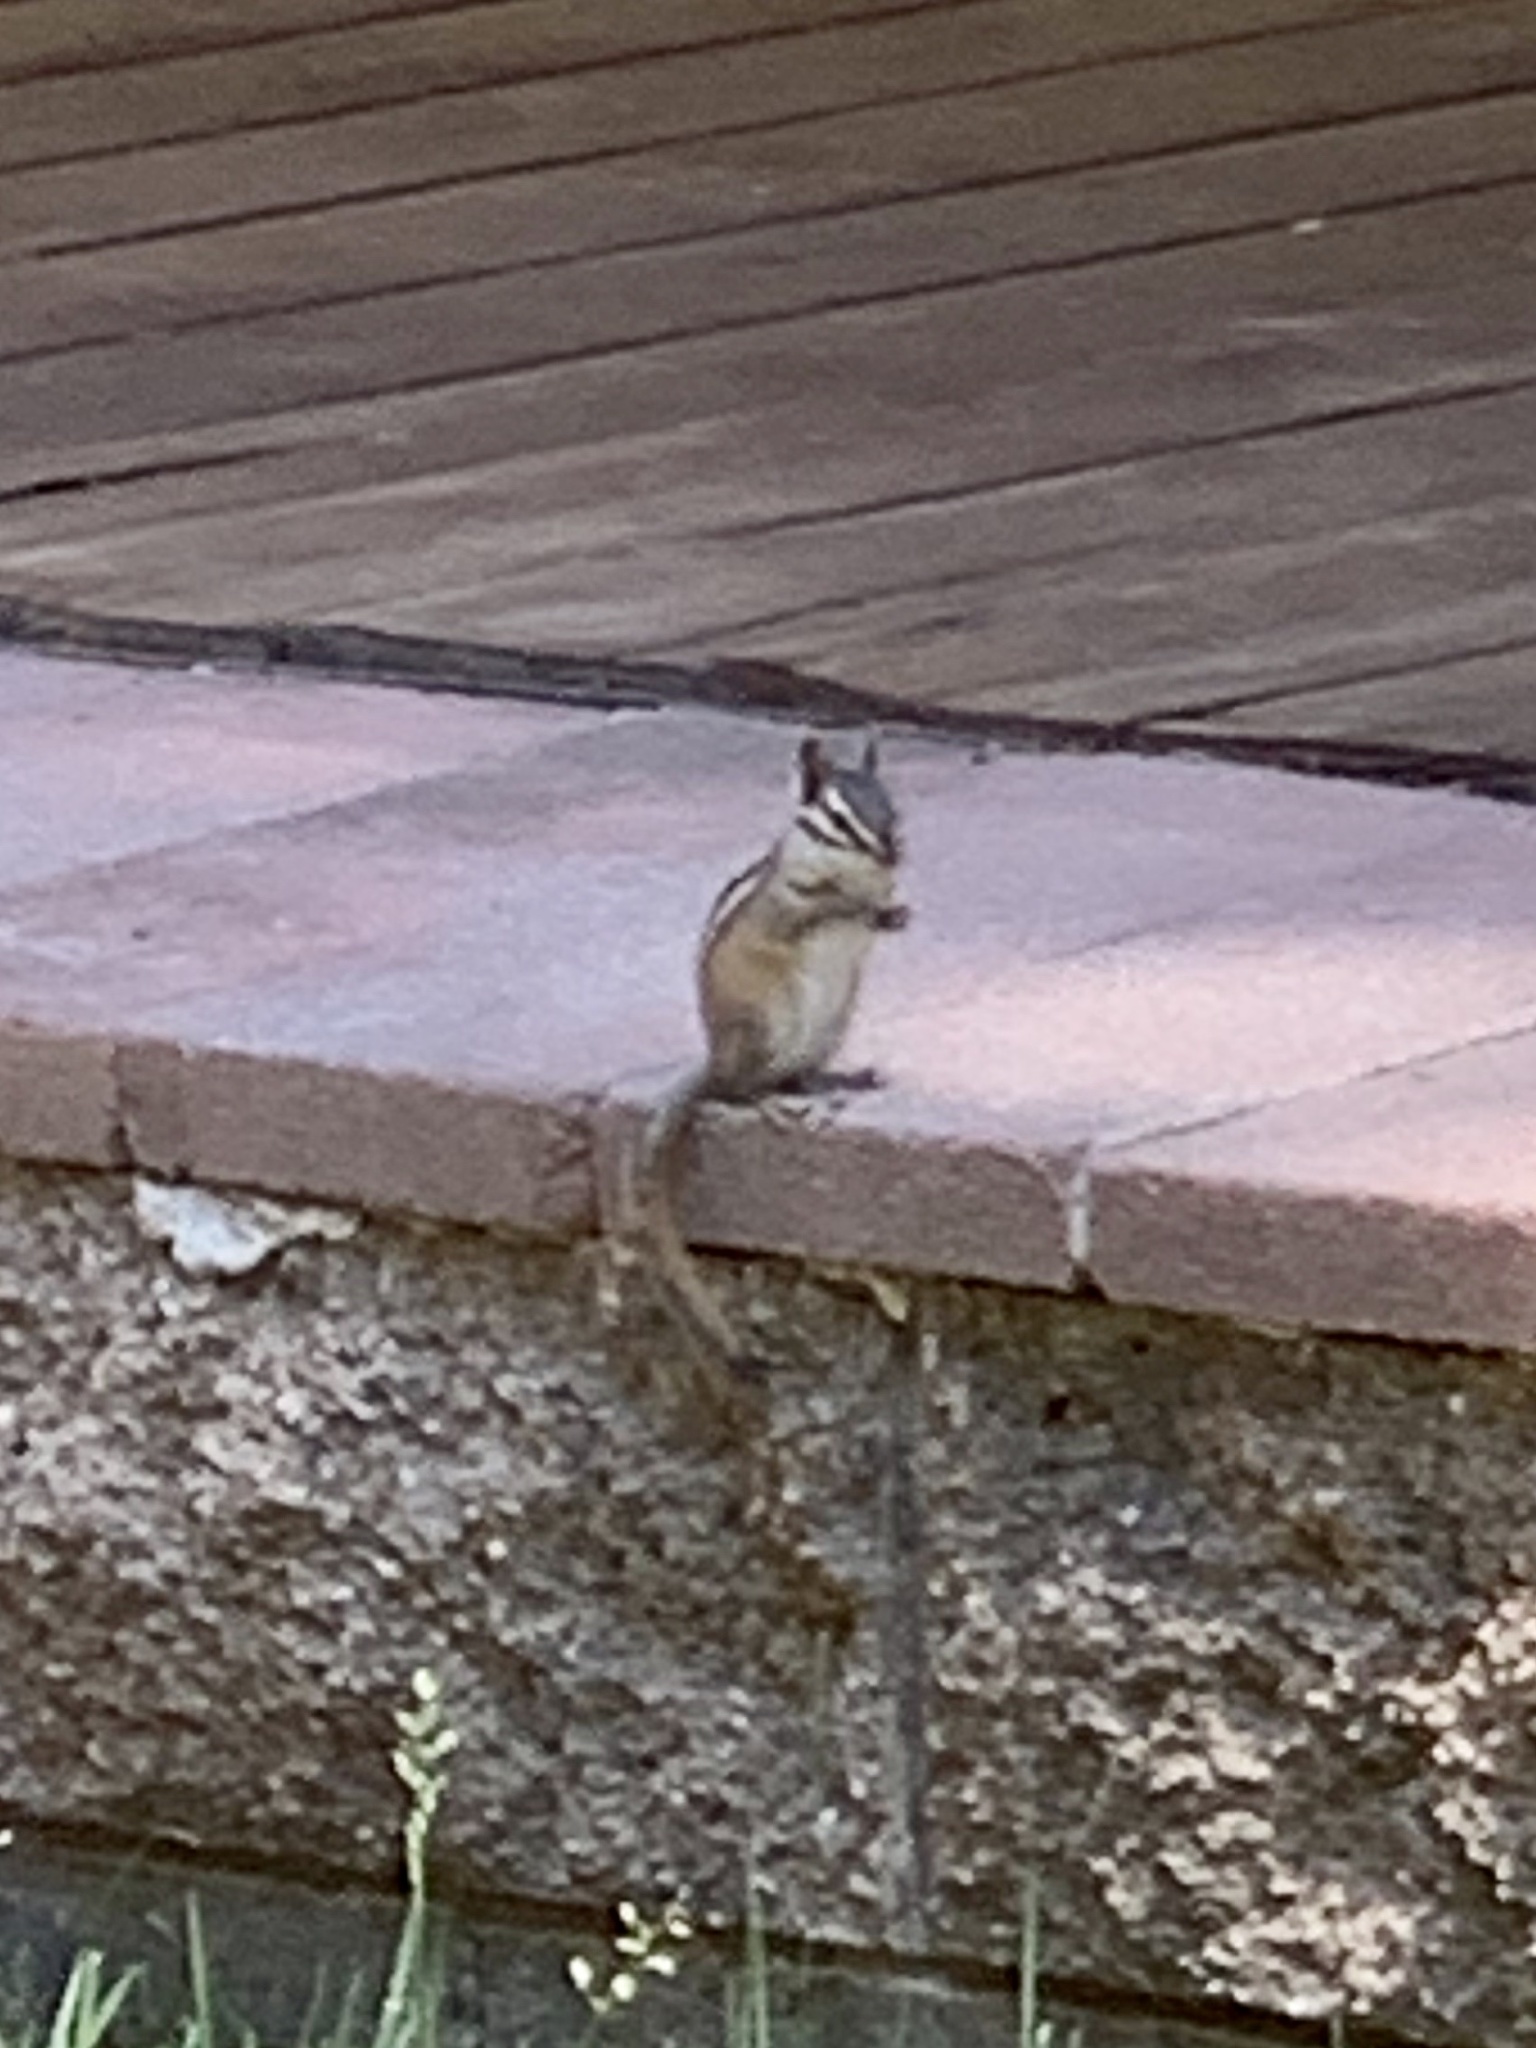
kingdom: Animalia
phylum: Chordata
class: Mammalia
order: Rodentia
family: Sciuridae
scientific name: Sciuridae
